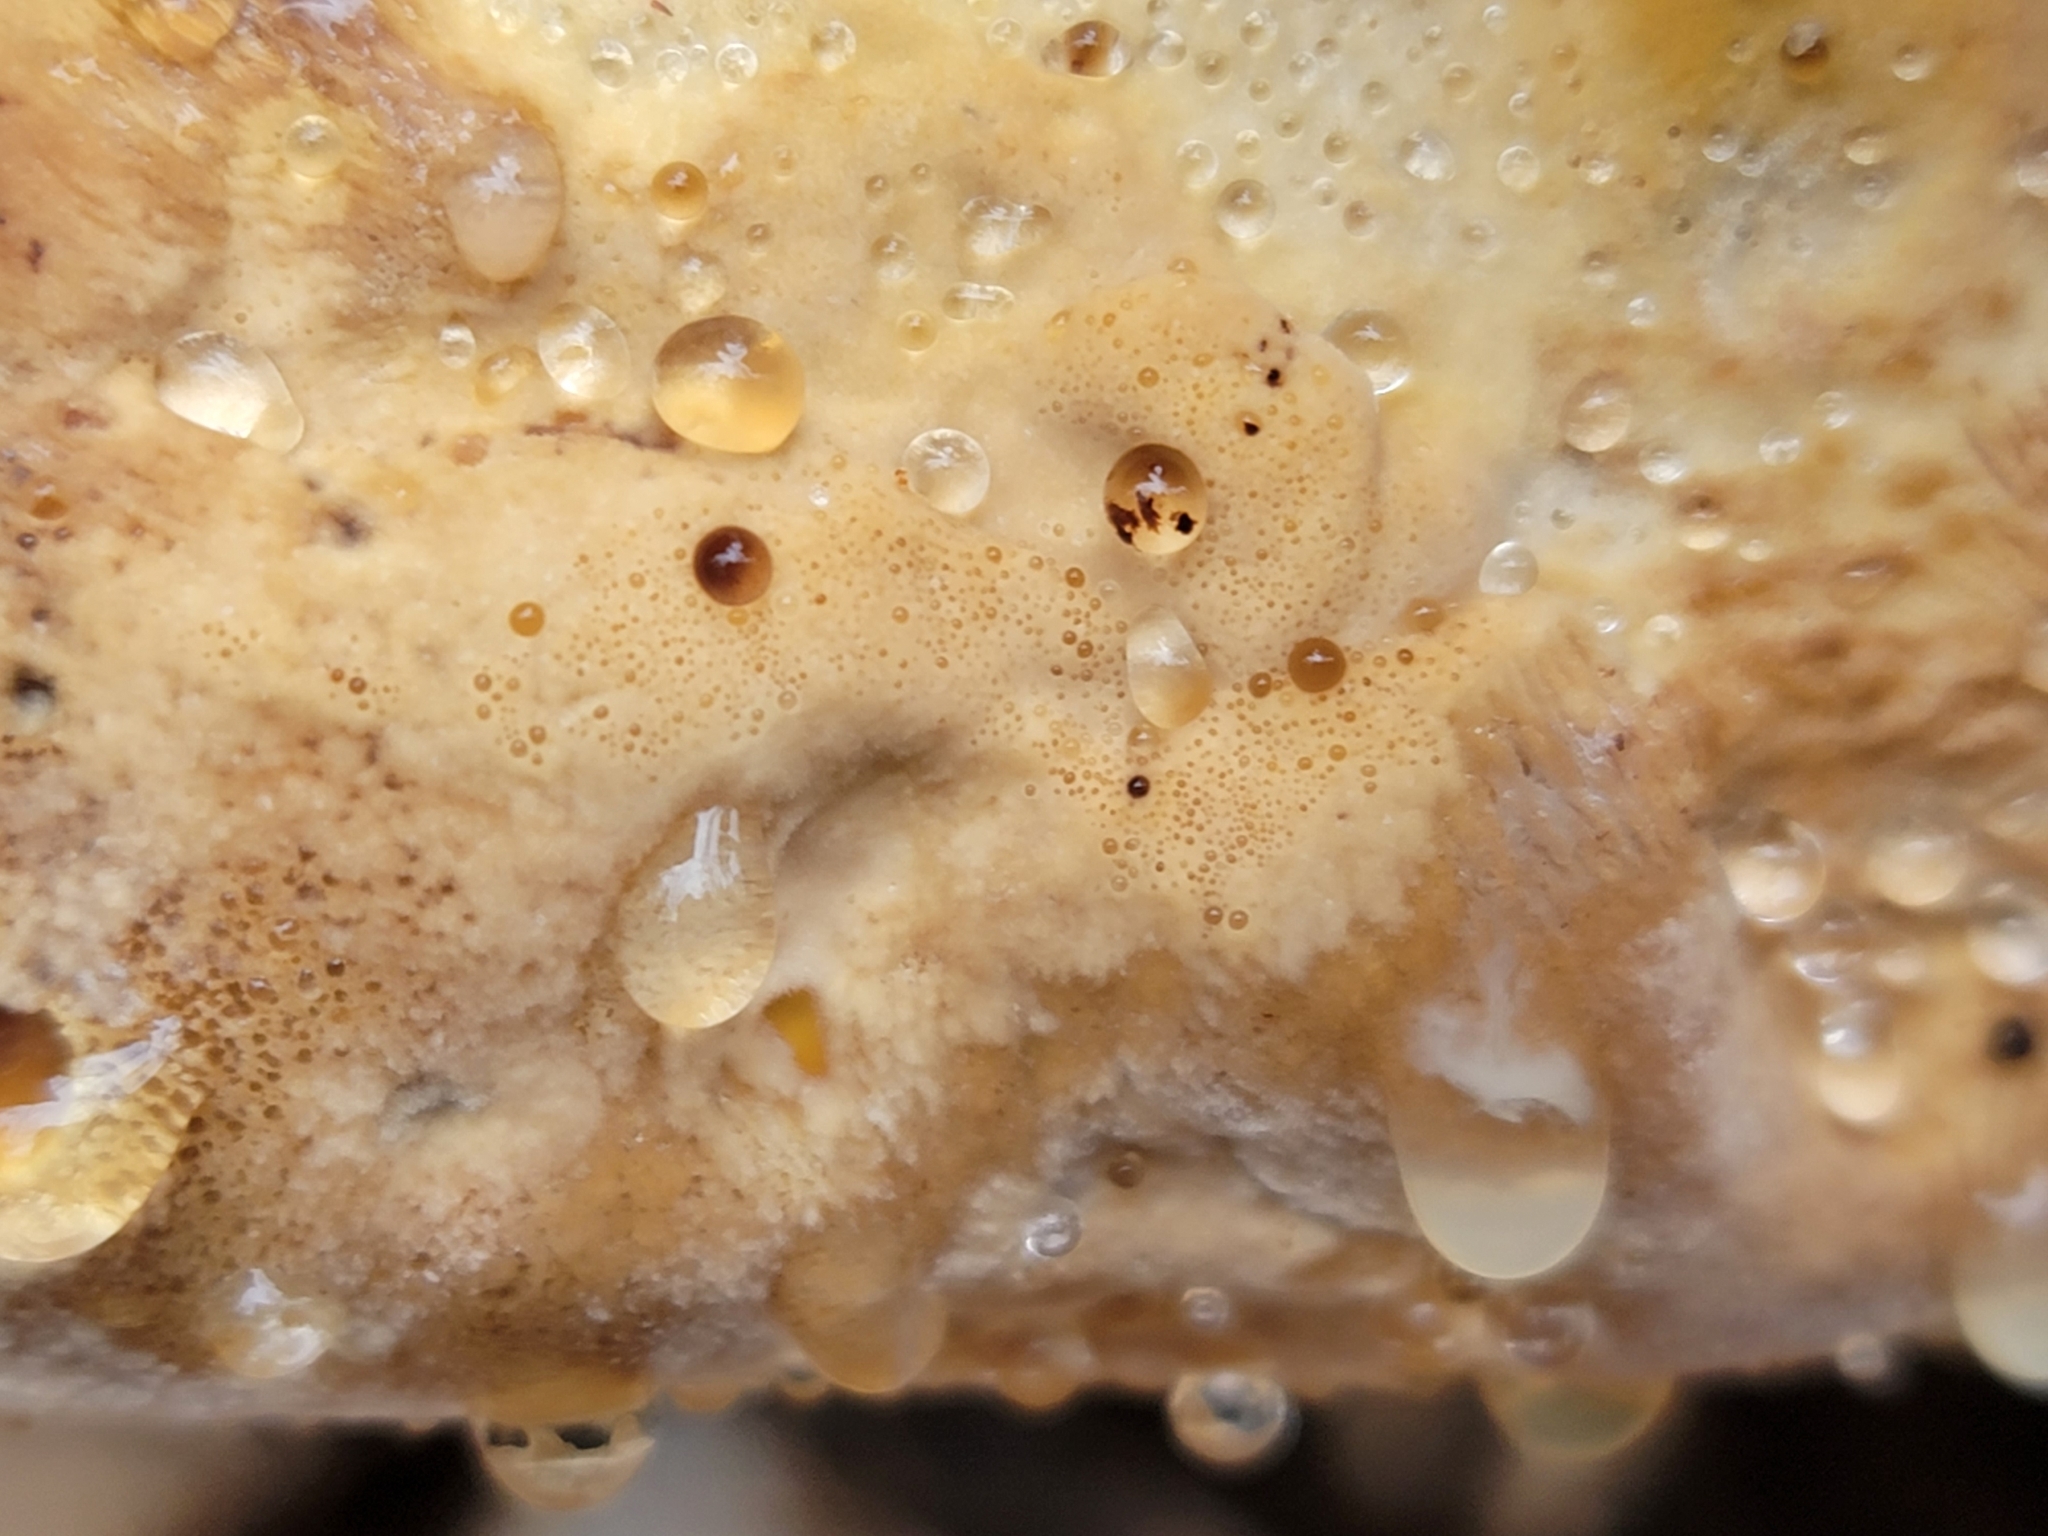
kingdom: Fungi
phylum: Basidiomycota
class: Agaricomycetes
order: Hymenochaetales
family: Hymenochaetaceae
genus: Pseudoinonotus
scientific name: Pseudoinonotus dryadeus
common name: Oak bracket
